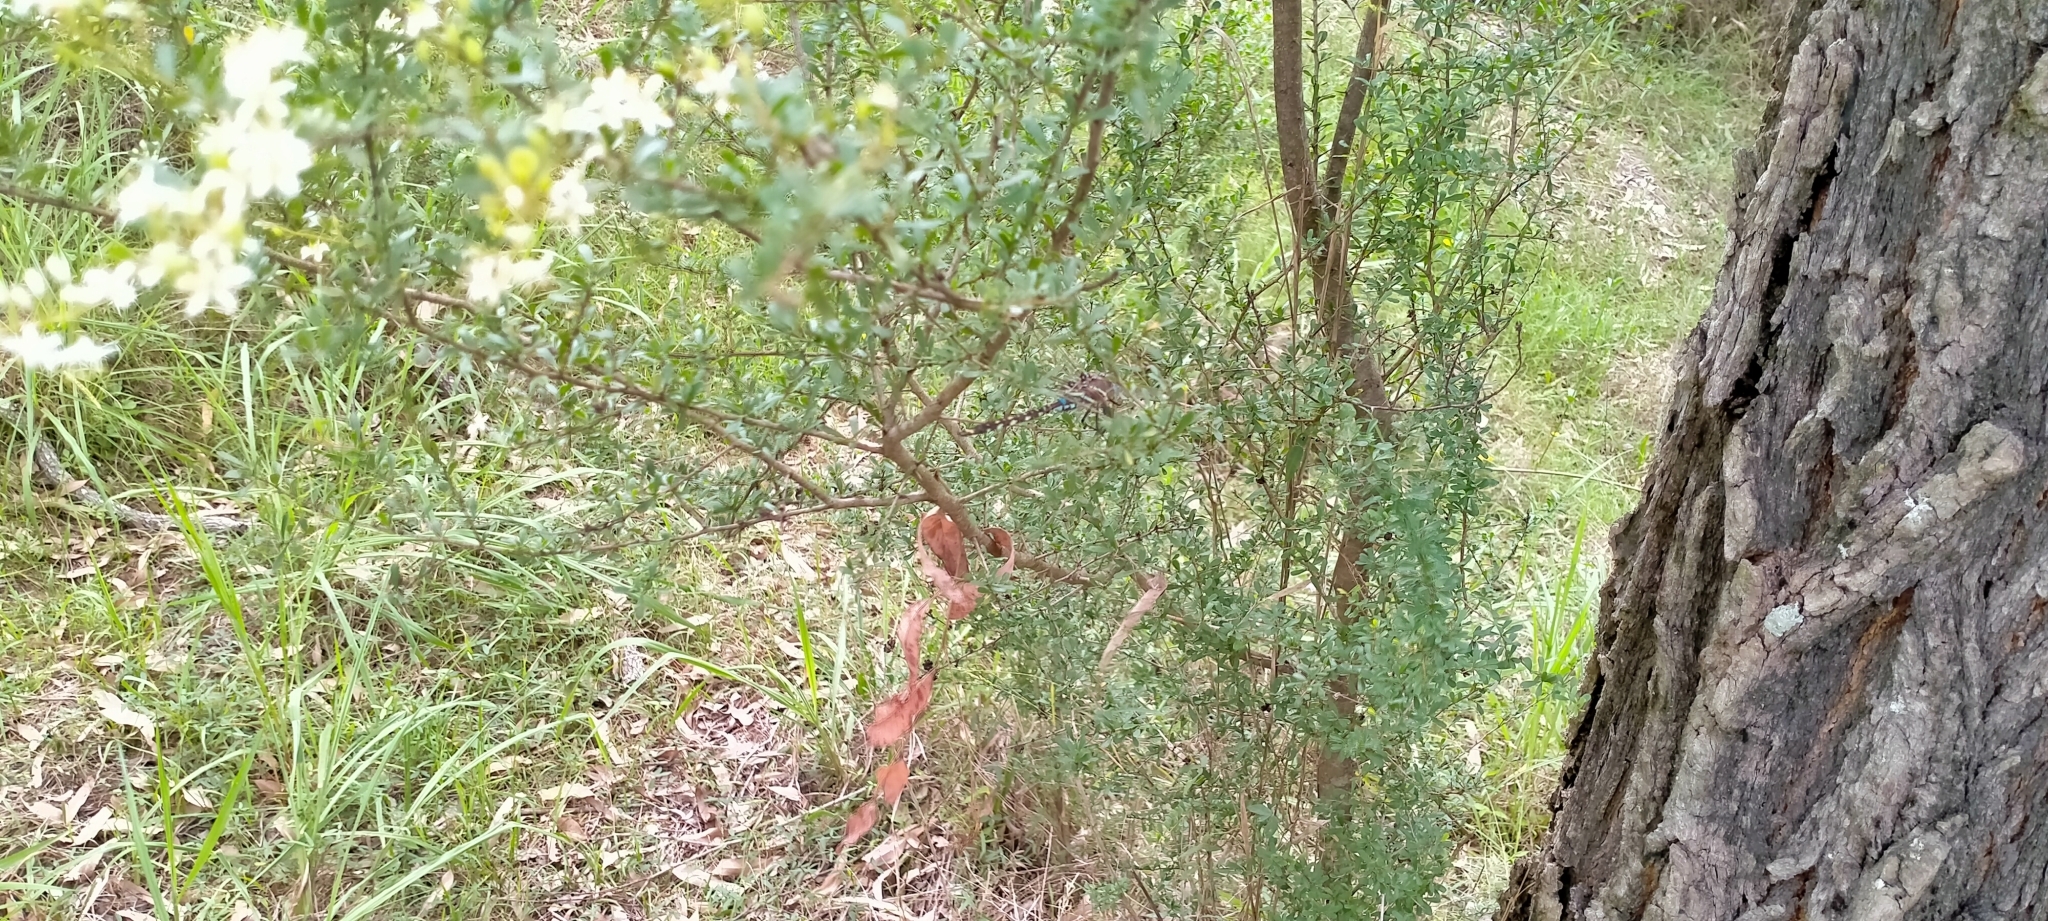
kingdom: Animalia
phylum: Arthropoda
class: Insecta
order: Odonata
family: Aeshnidae
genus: Aeshna
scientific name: Aeshna brevistyla
